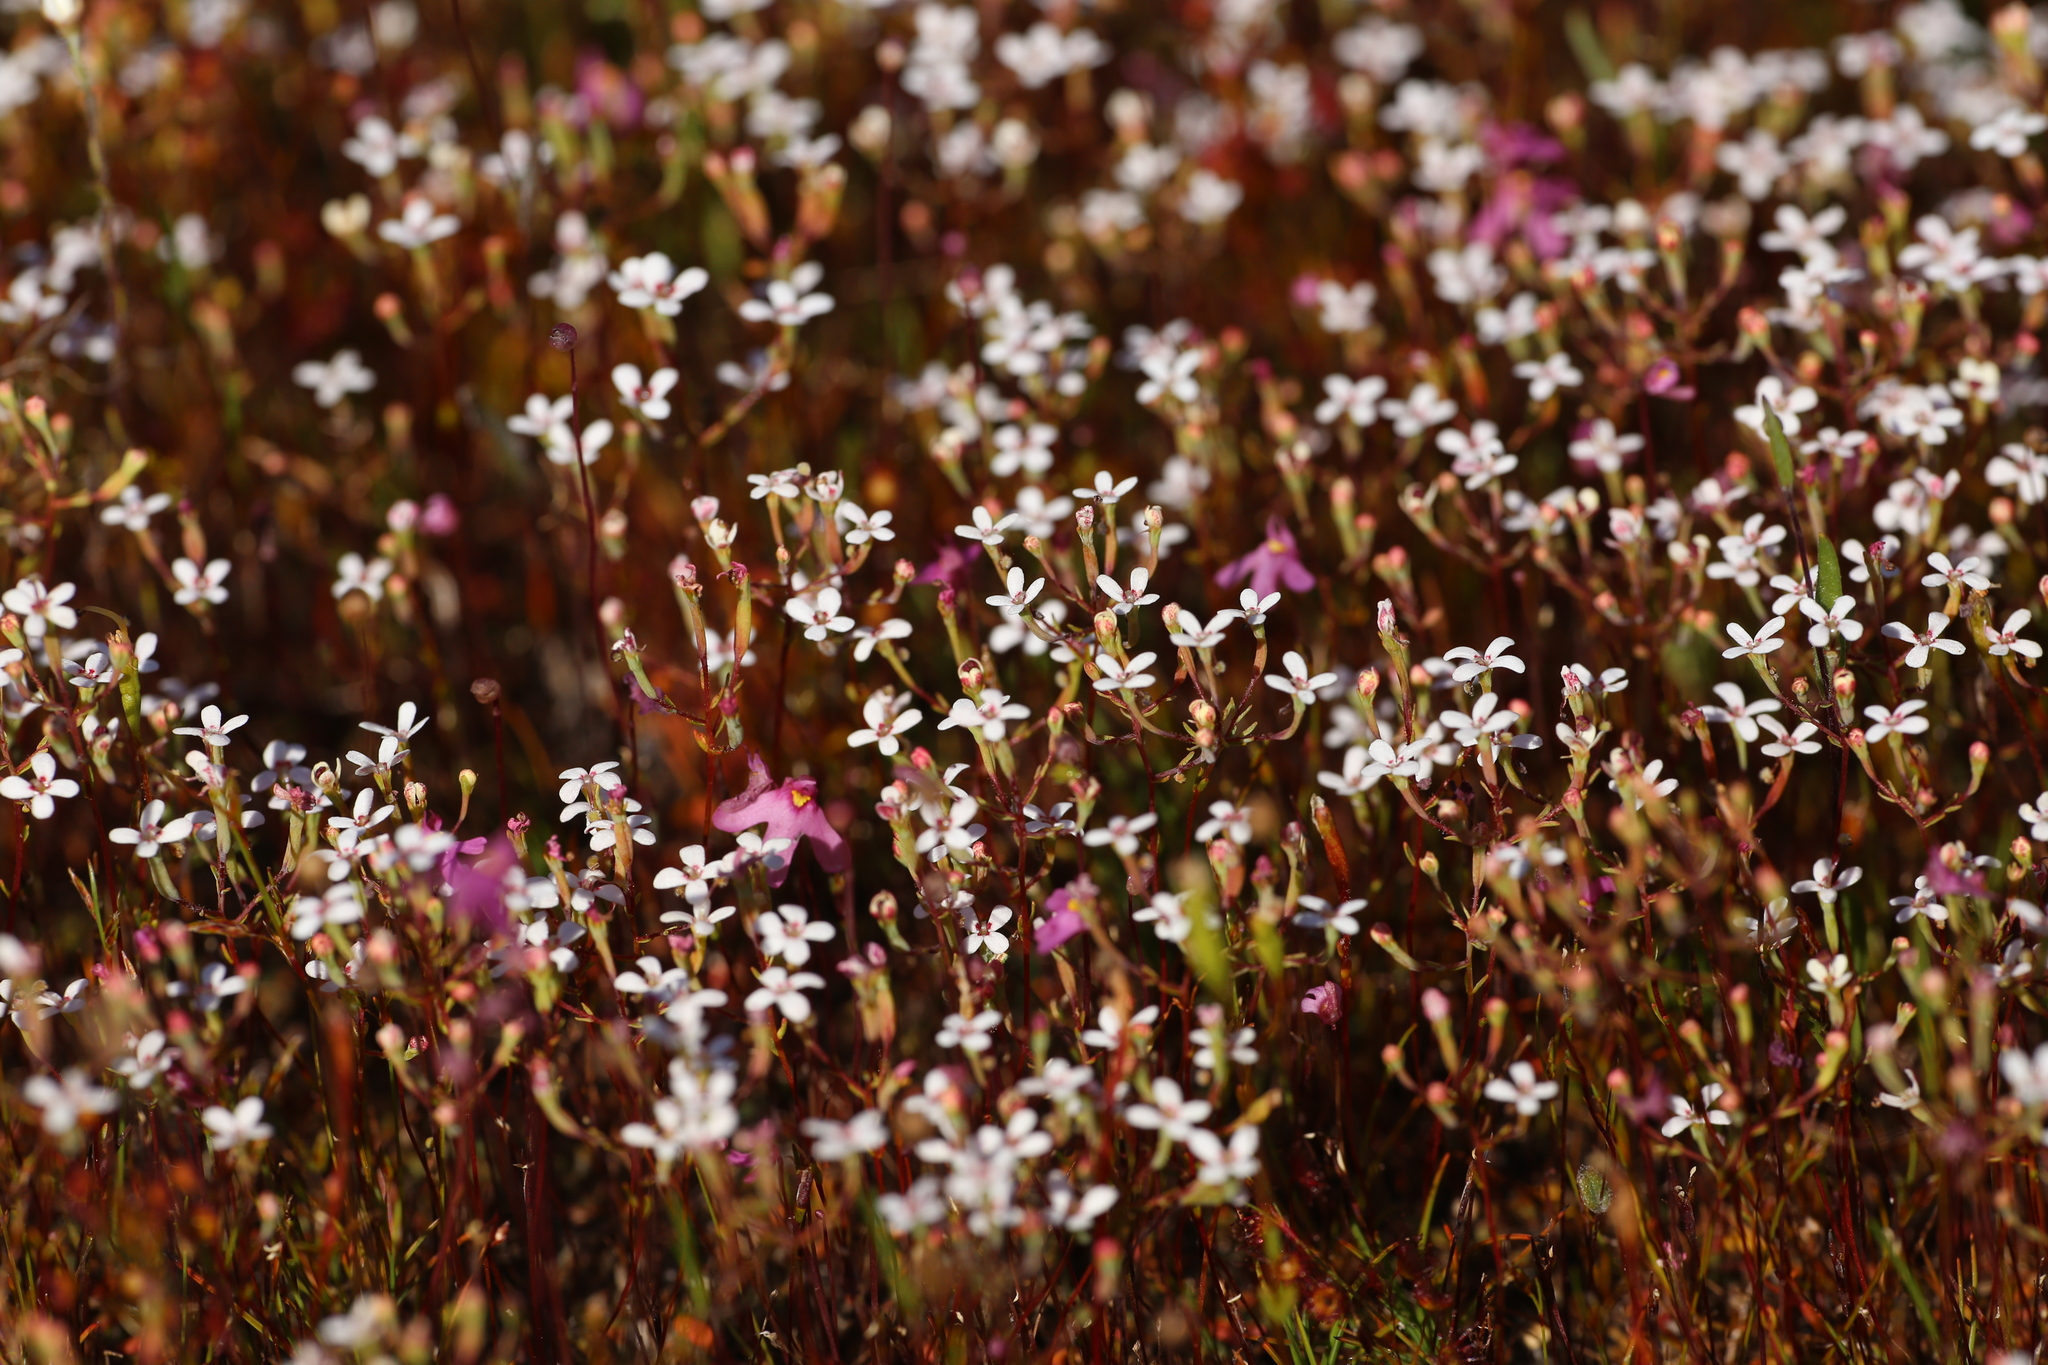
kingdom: Plantae
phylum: Tracheophyta
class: Magnoliopsida
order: Asterales
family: Stylidiaceae
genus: Stylidium
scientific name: Stylidium pulchellum
